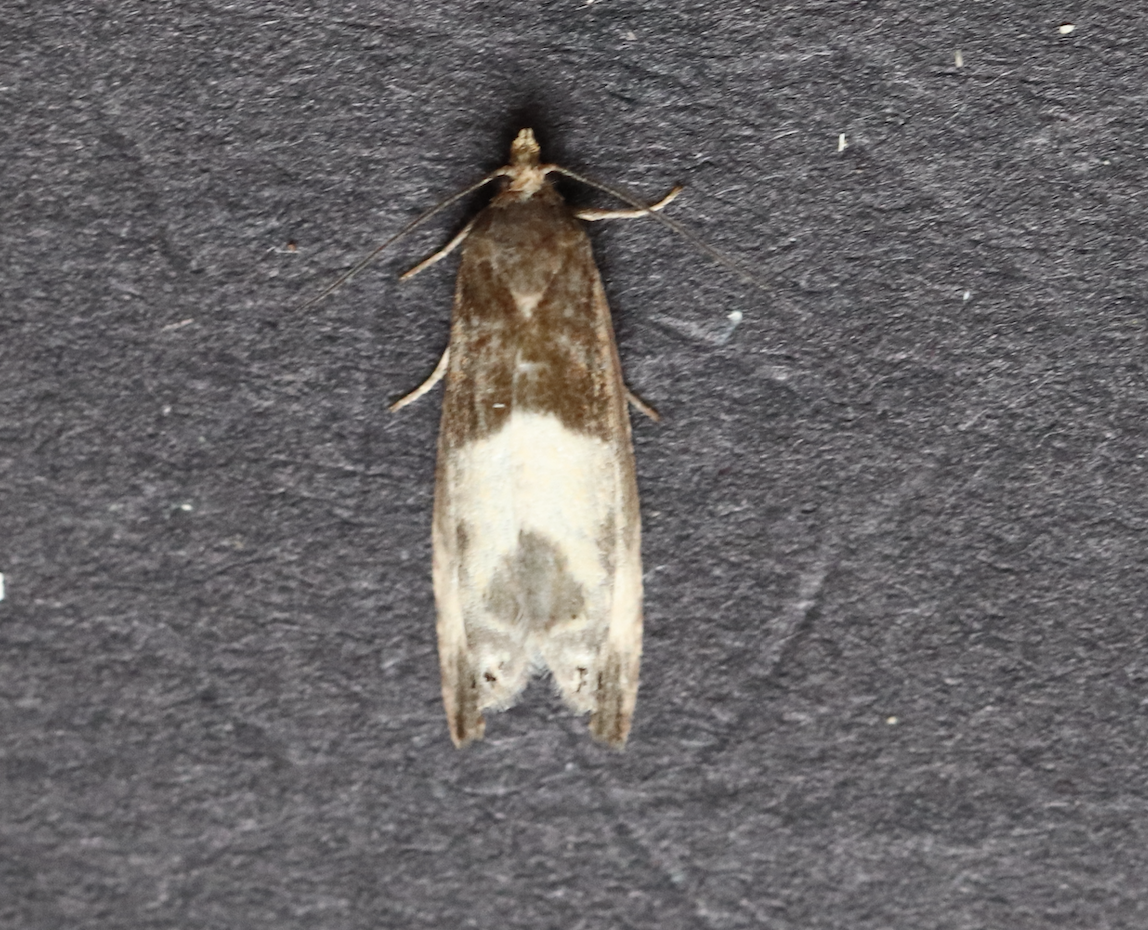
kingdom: Animalia
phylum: Arthropoda
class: Insecta
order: Lepidoptera
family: Tortricidae
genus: Notocelia
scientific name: Notocelia cynosbatella
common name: Yellow-faced bell moth
